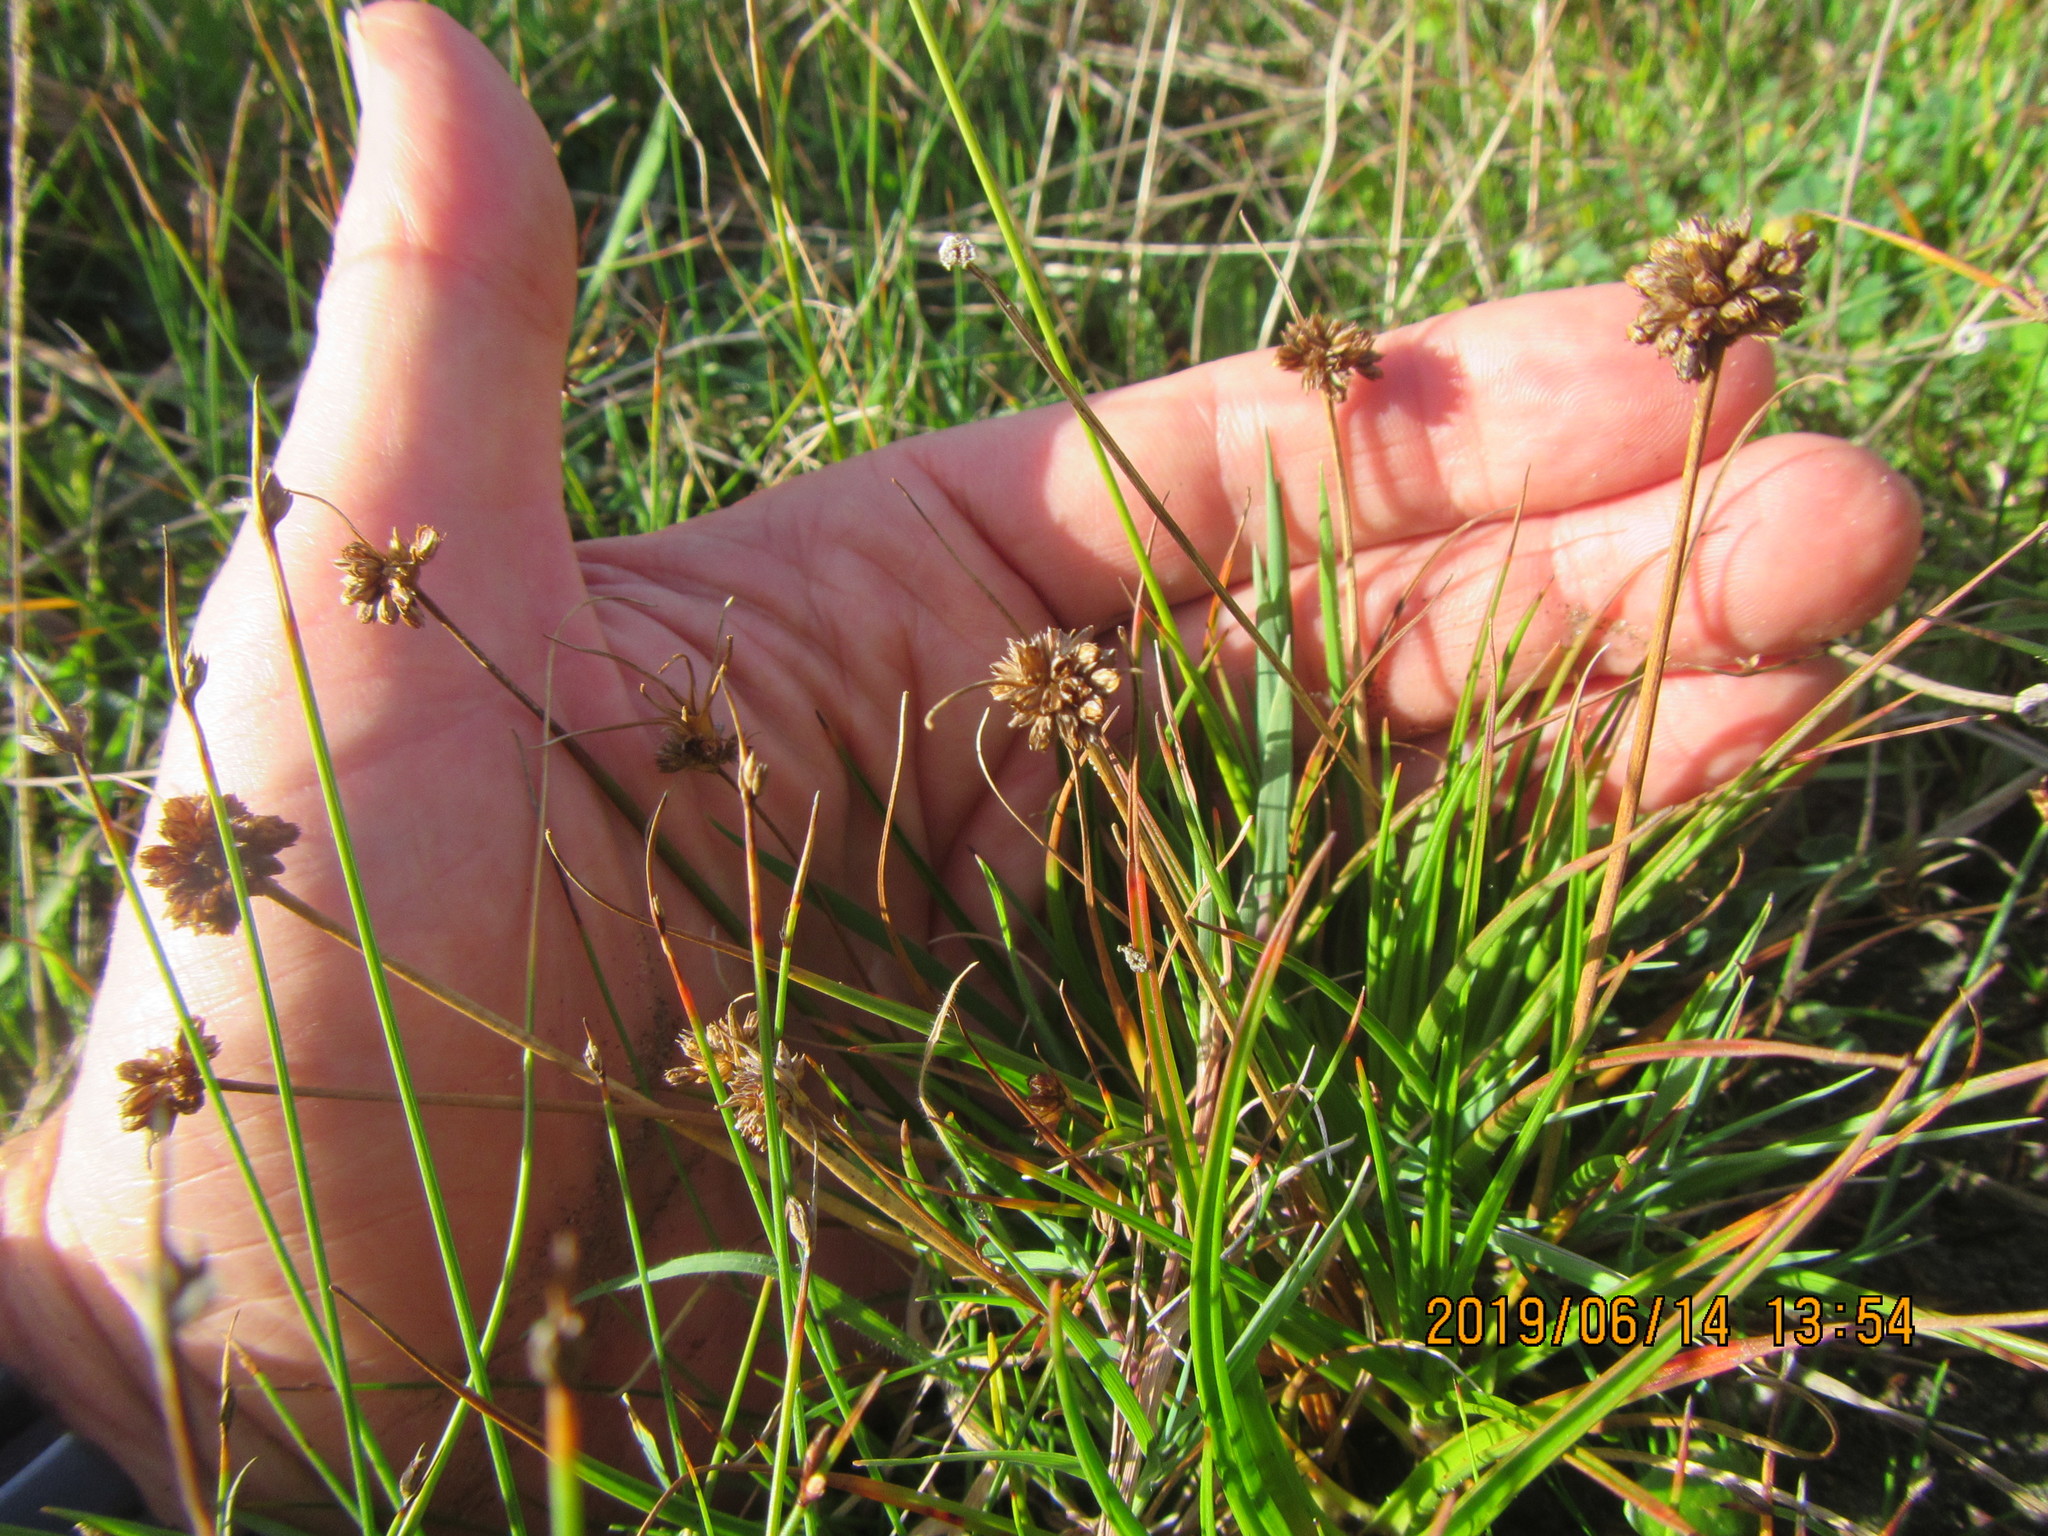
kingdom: Plantae
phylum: Tracheophyta
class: Liliopsida
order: Poales
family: Juncaceae
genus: Juncus
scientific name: Juncus caespiticius
